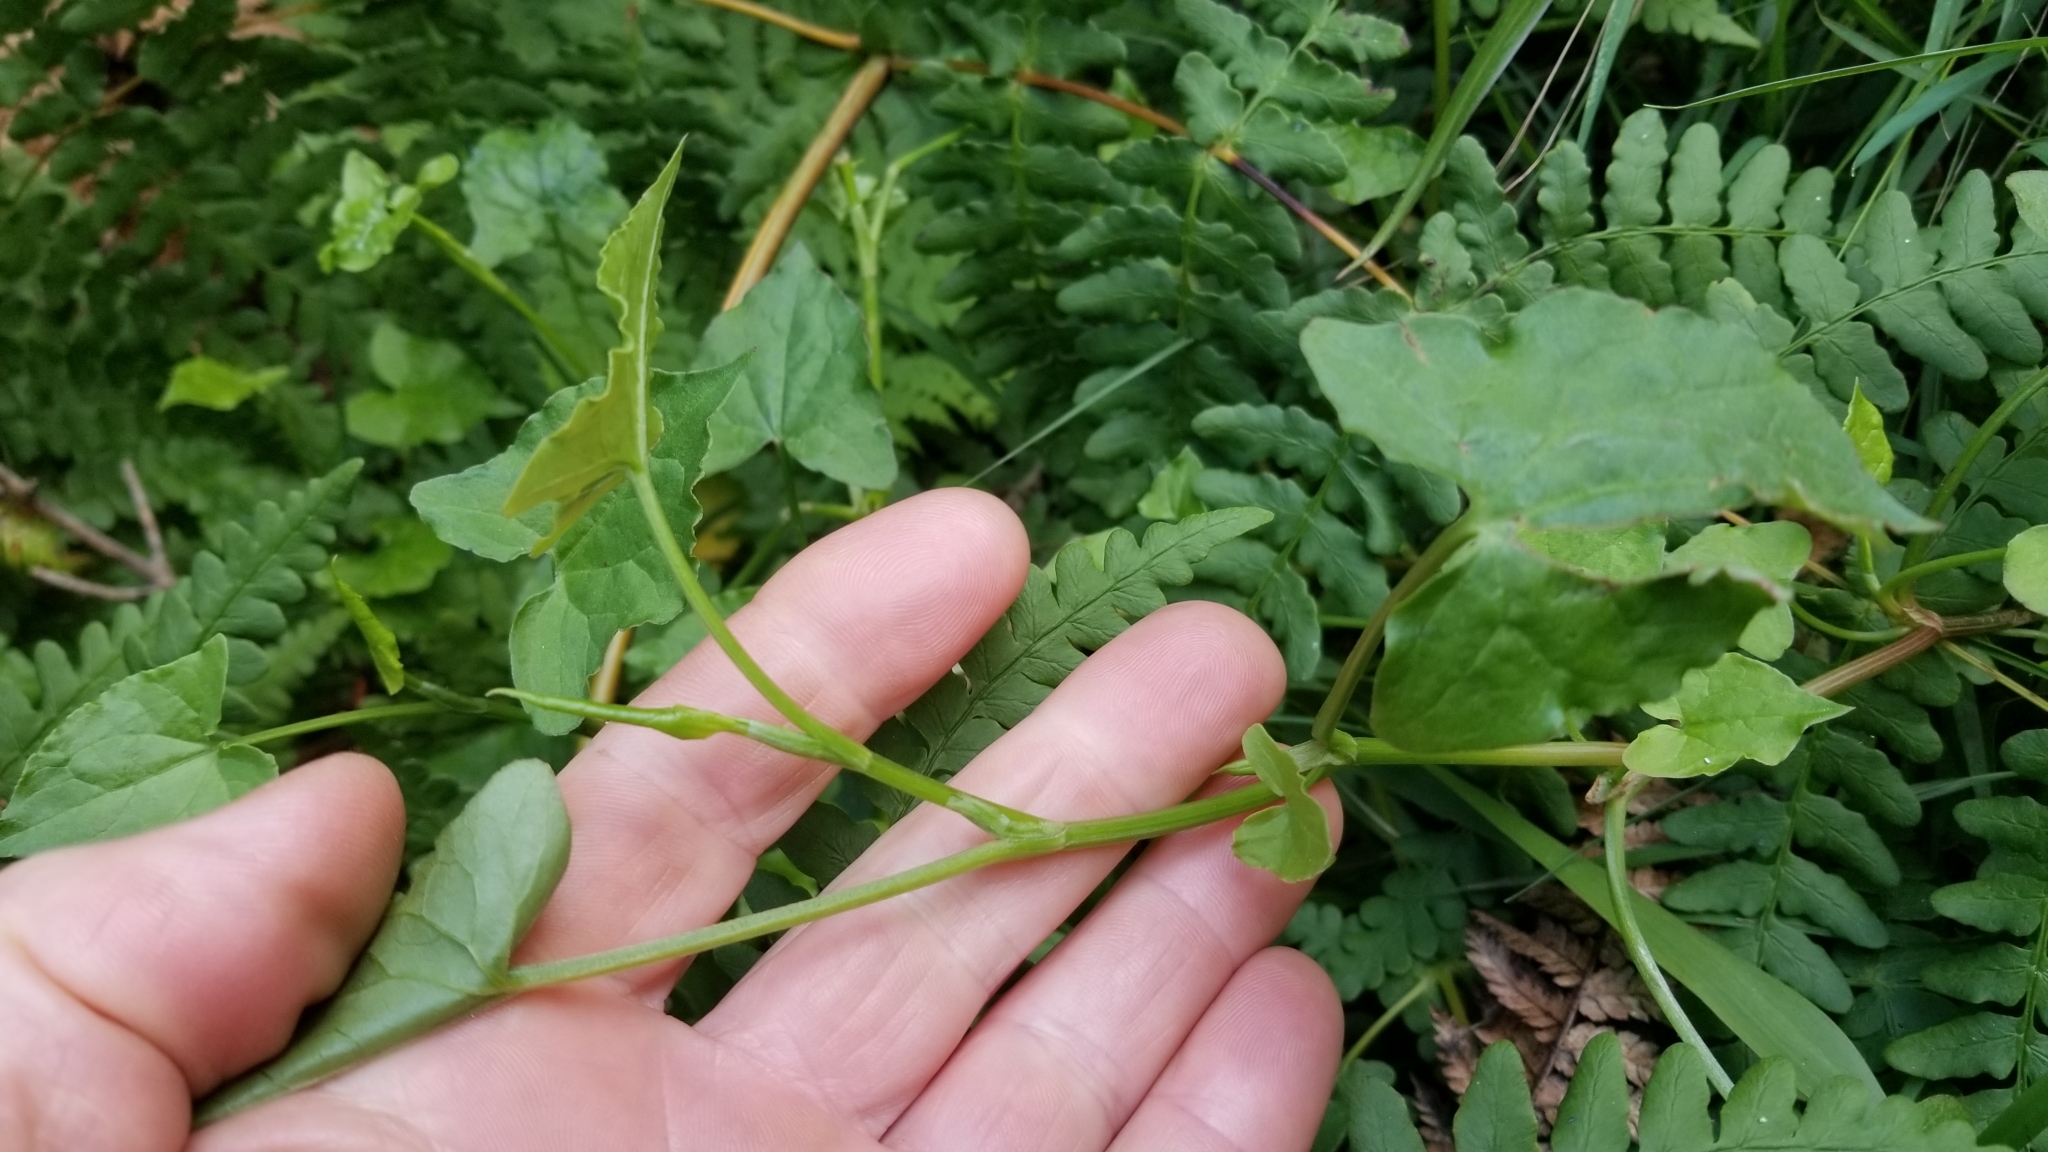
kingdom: Plantae
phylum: Tracheophyta
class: Magnoliopsida
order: Caryophyllales
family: Polygonaceae
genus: Rumex
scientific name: Rumex sagittatus
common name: Climbing dock
